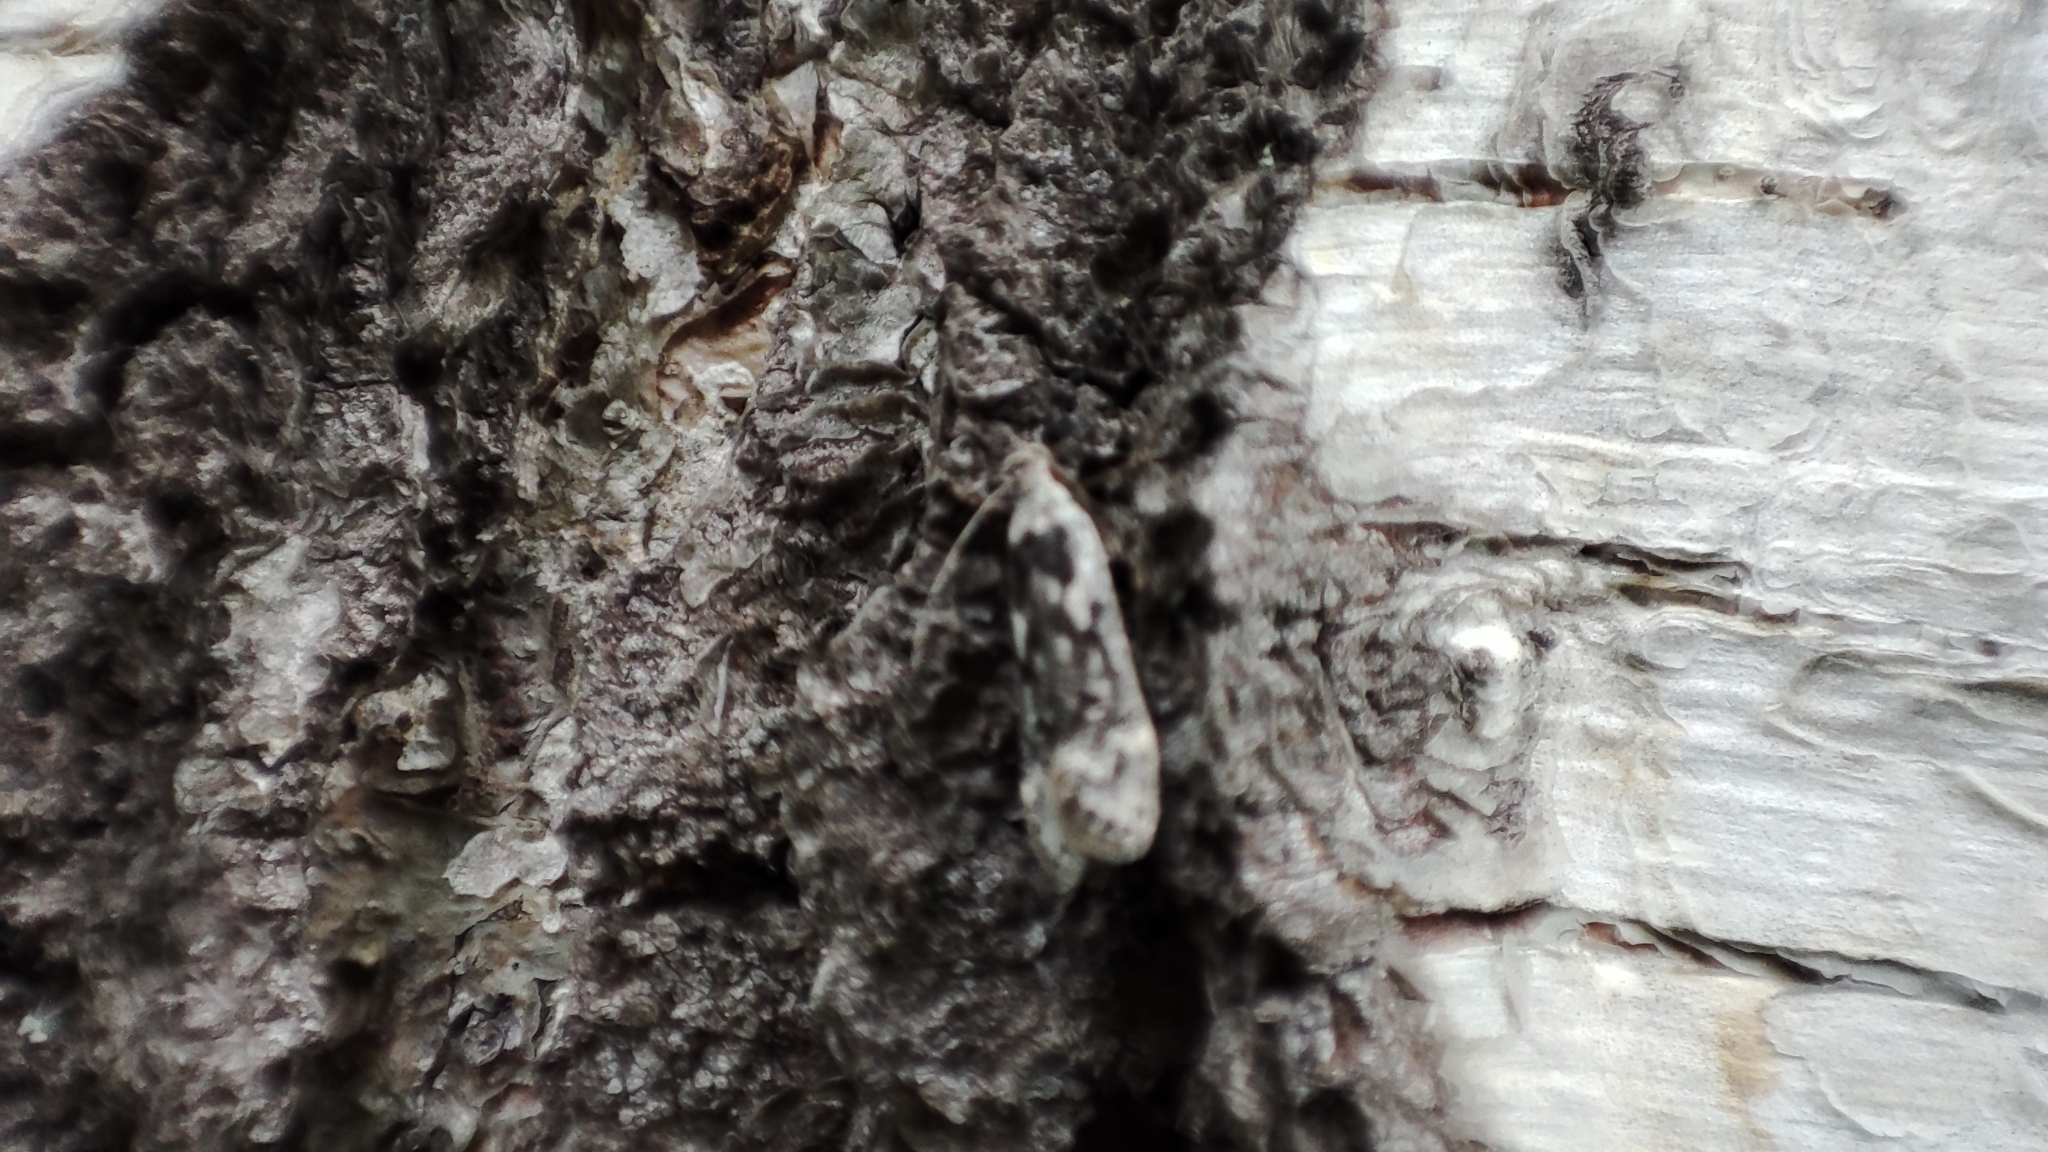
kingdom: Animalia
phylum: Arthropoda
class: Insecta
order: Lepidoptera
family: Gelechiidae
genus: Anacampsis
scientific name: Anacampsis blattariella
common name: Birch sober
